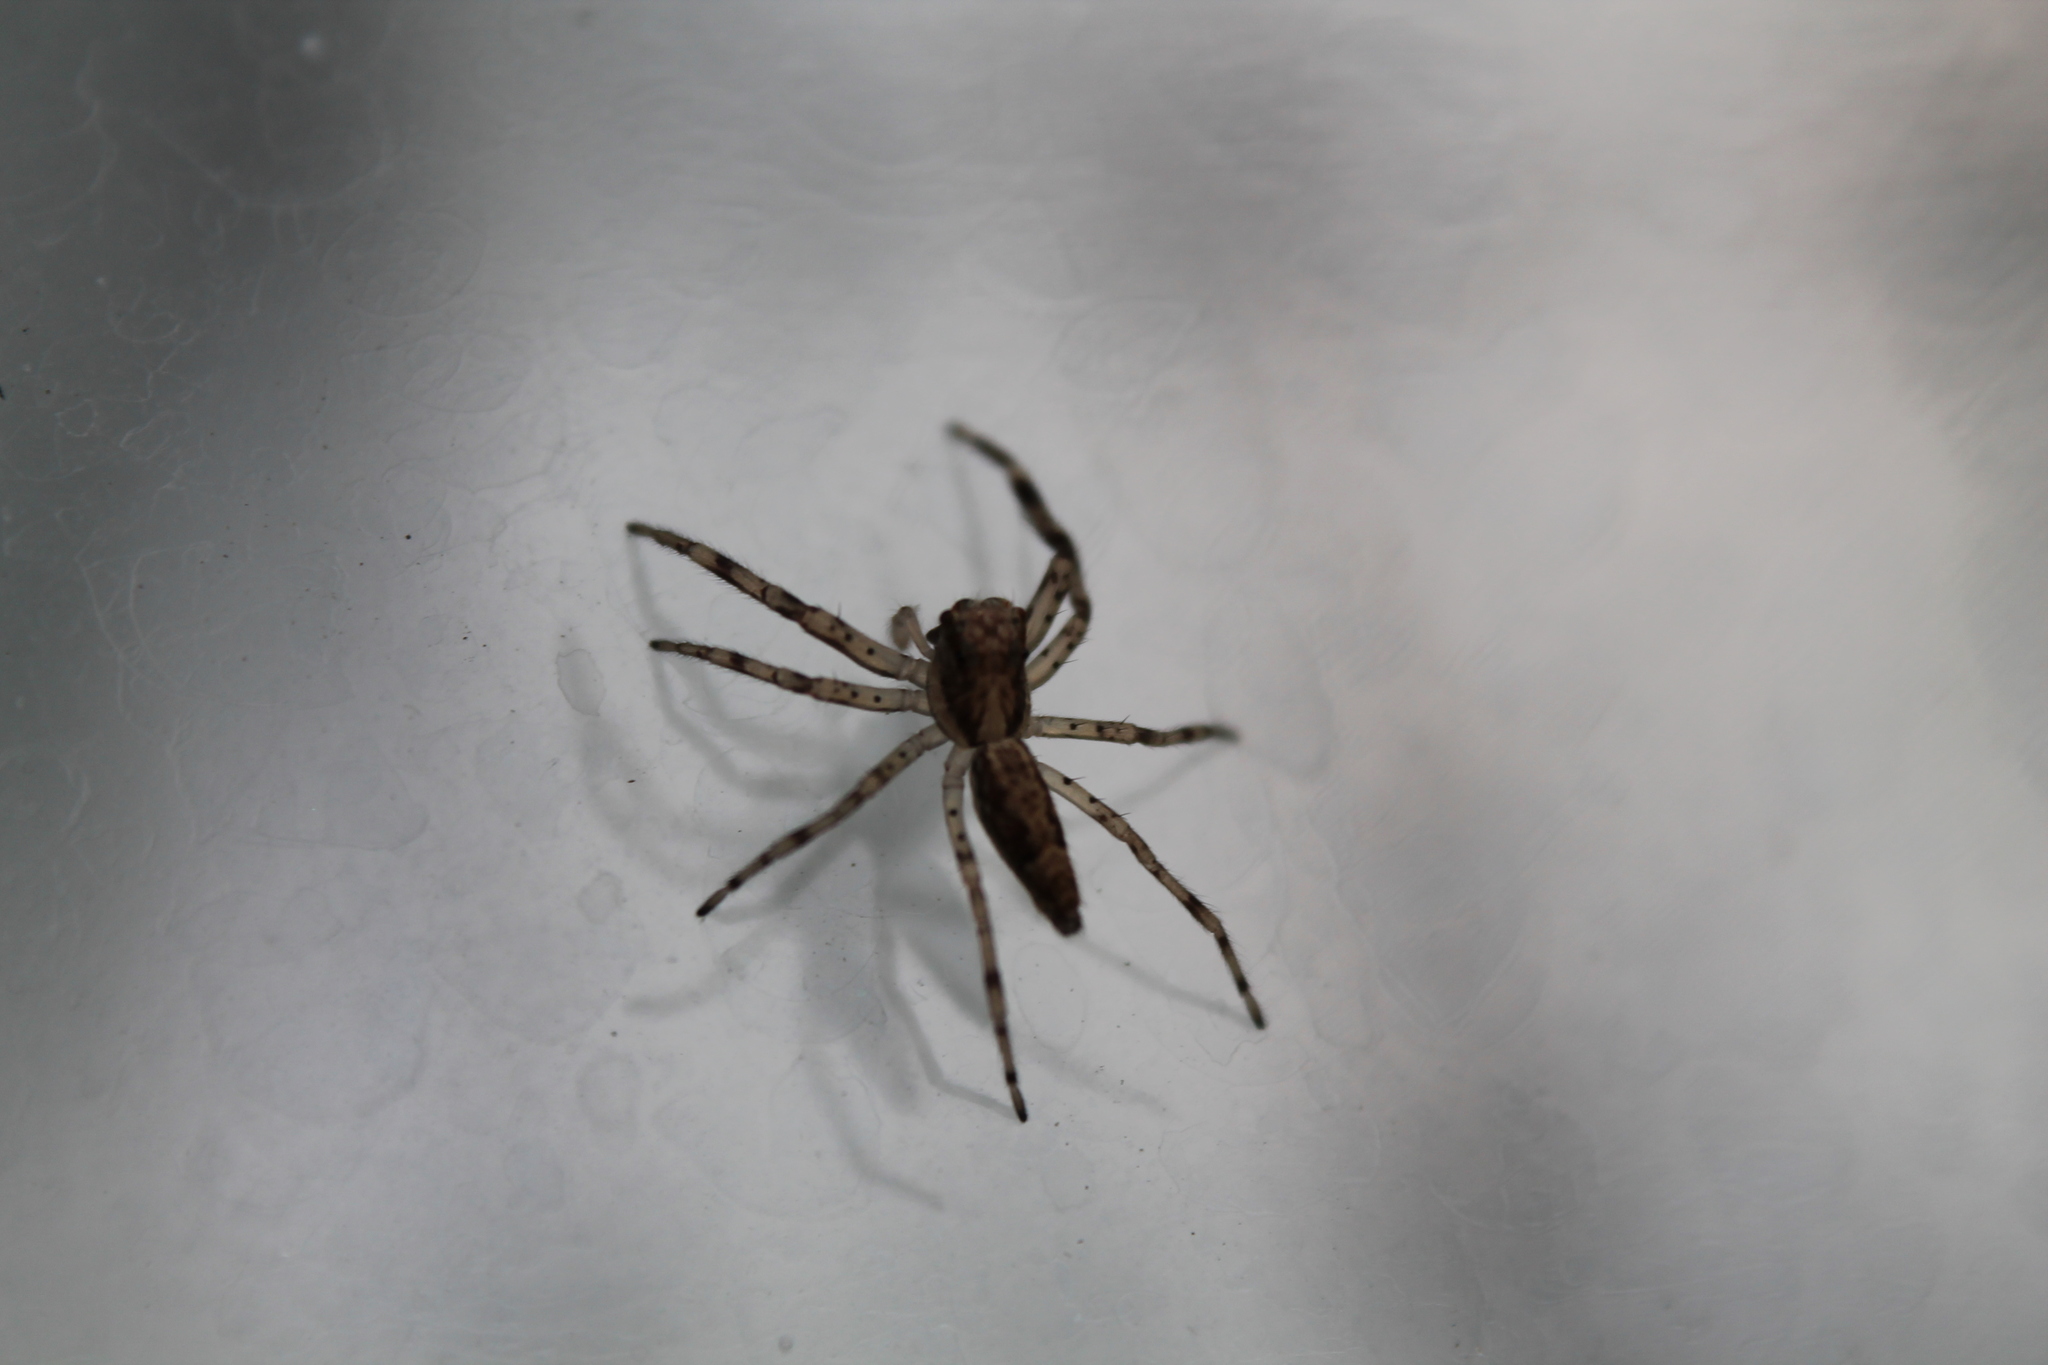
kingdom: Animalia
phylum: Arthropoda
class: Arachnida
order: Araneae
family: Salticidae
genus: Helpis
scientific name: Helpis minitabunda
